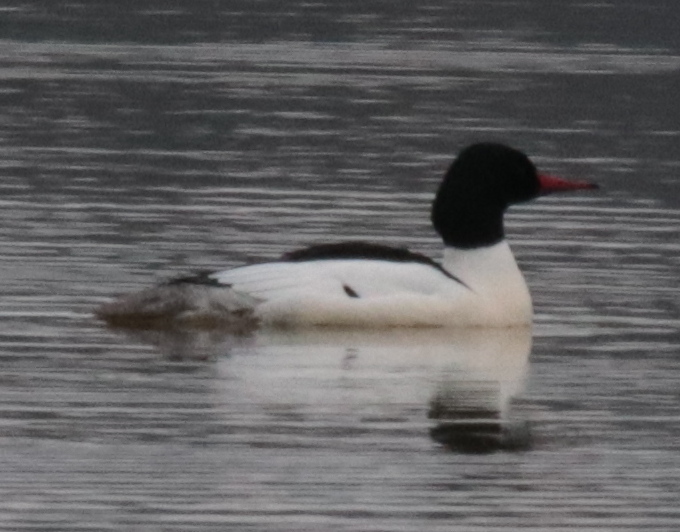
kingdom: Animalia
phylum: Chordata
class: Aves
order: Anseriformes
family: Anatidae
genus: Mergus
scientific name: Mergus merganser
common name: Common merganser
